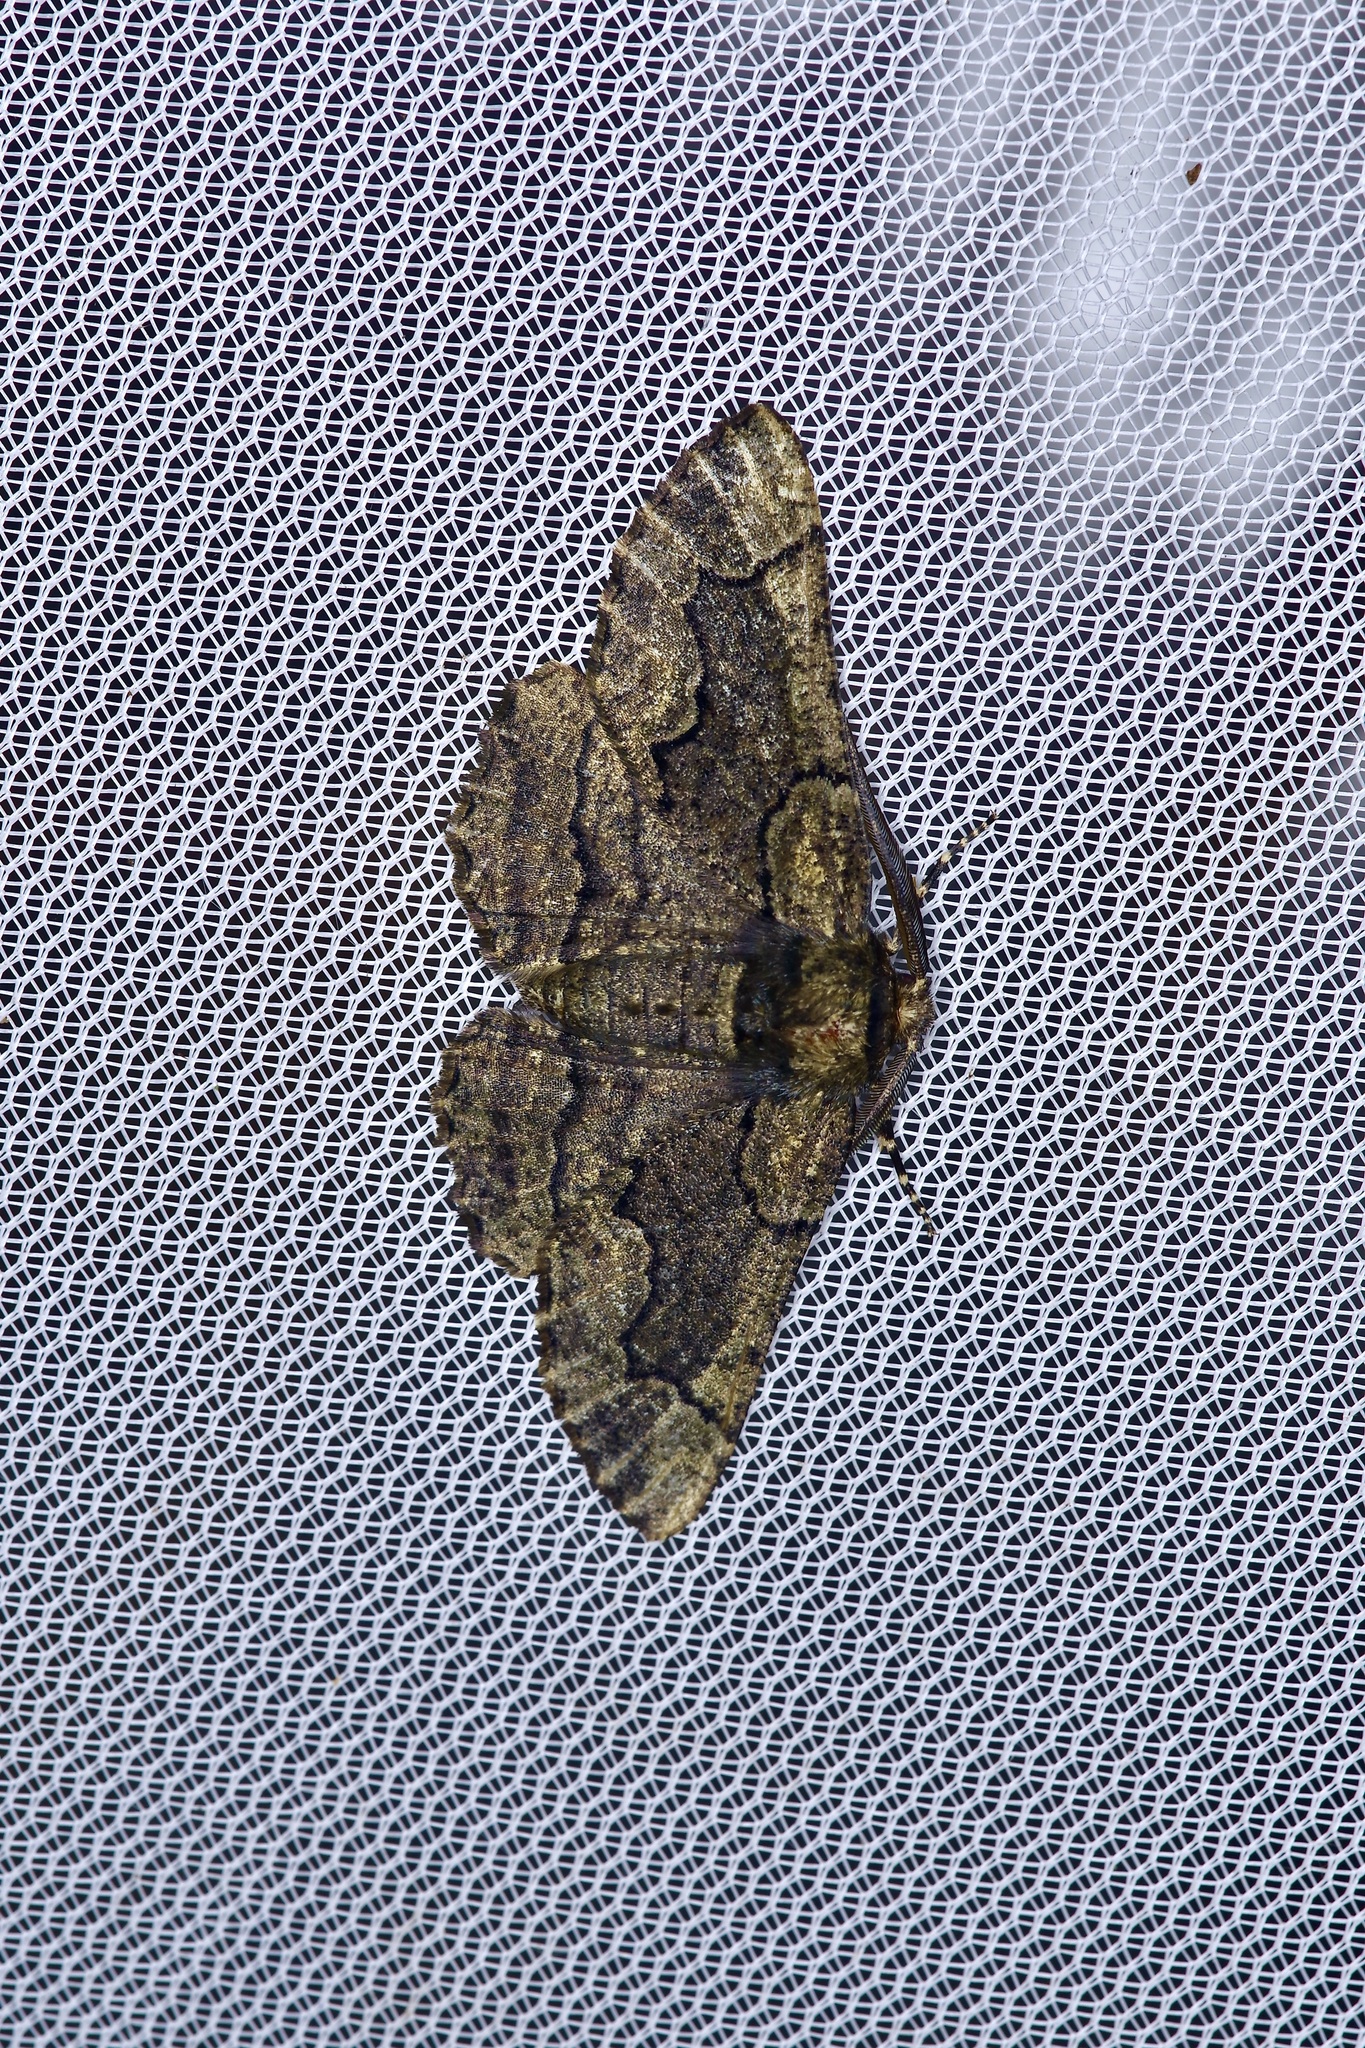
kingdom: Animalia
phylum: Arthropoda
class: Insecta
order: Lepidoptera
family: Geometridae
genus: Phaeoura
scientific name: Phaeoura quernaria
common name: Oak beauty
